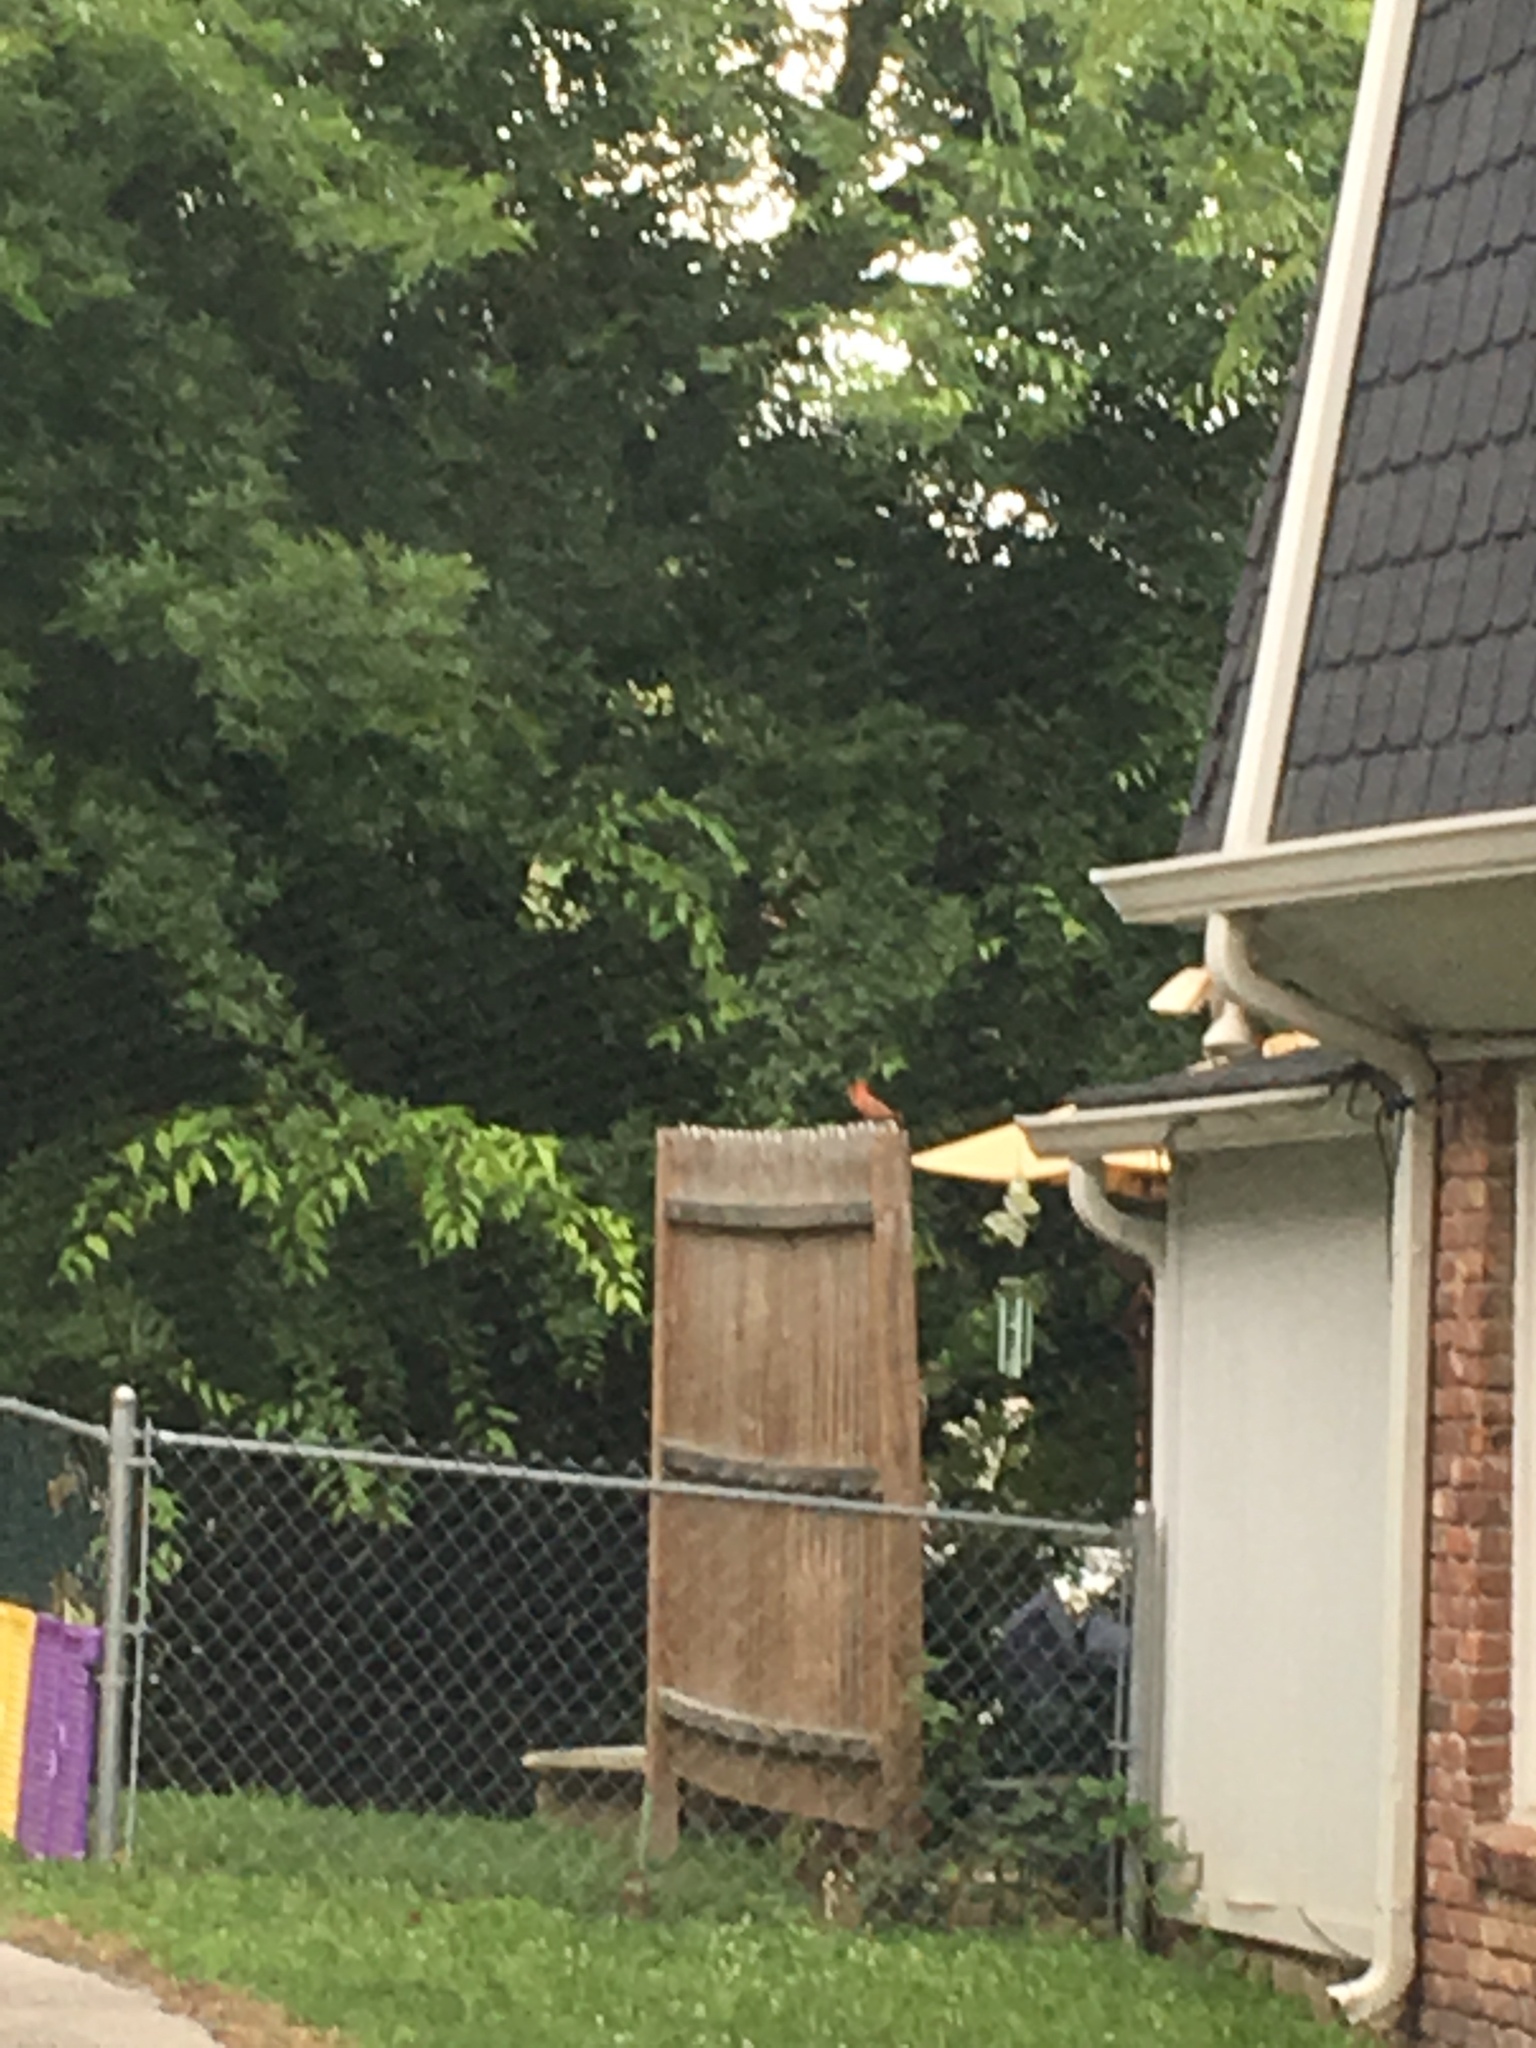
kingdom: Animalia
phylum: Chordata
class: Aves
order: Passeriformes
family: Cardinalidae
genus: Cardinalis
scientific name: Cardinalis cardinalis
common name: Northern cardinal
